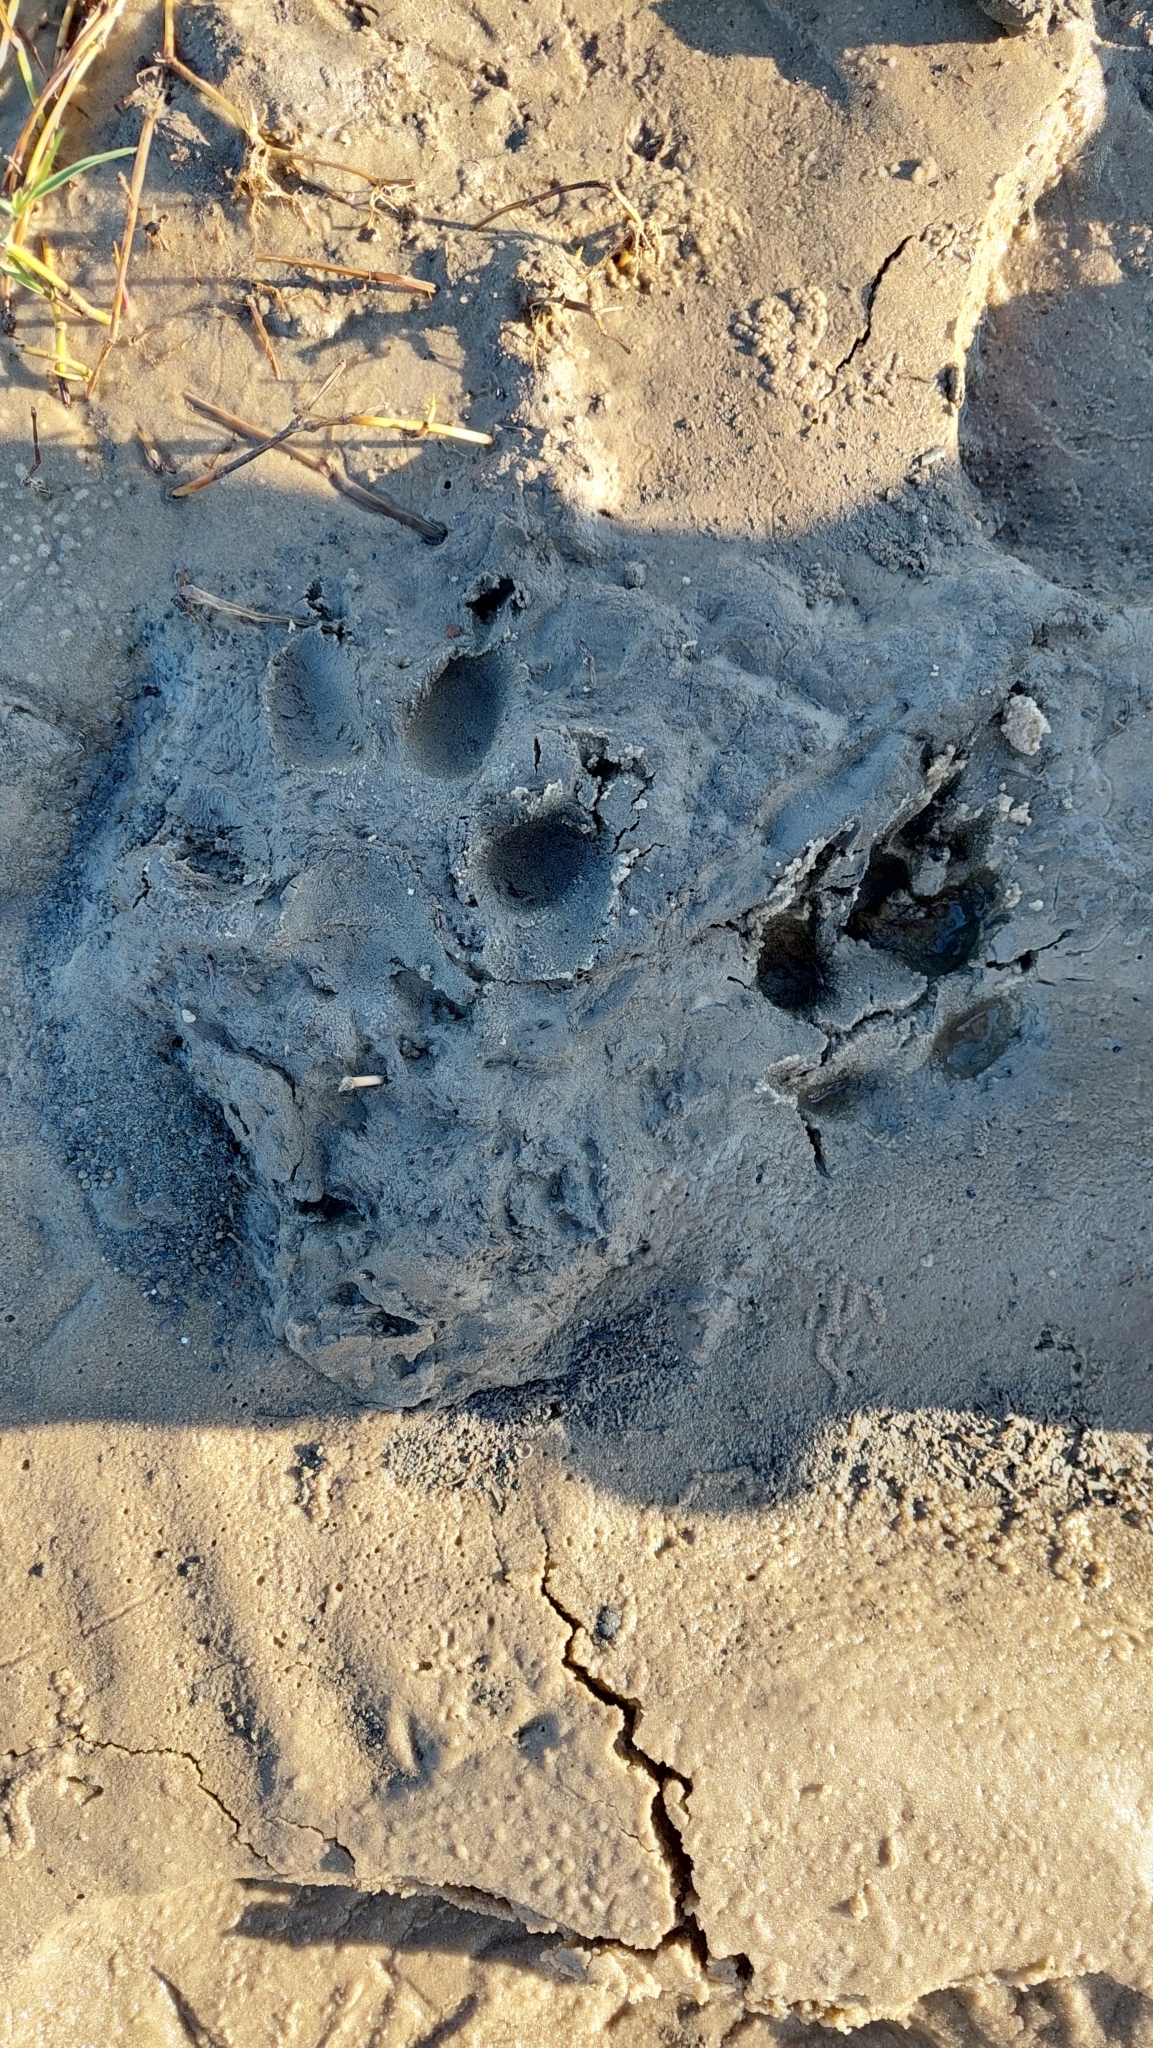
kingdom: Animalia
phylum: Chordata
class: Mammalia
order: Carnivora
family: Canidae
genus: Chrysocyon
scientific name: Chrysocyon brachyurus
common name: Maned wolf
